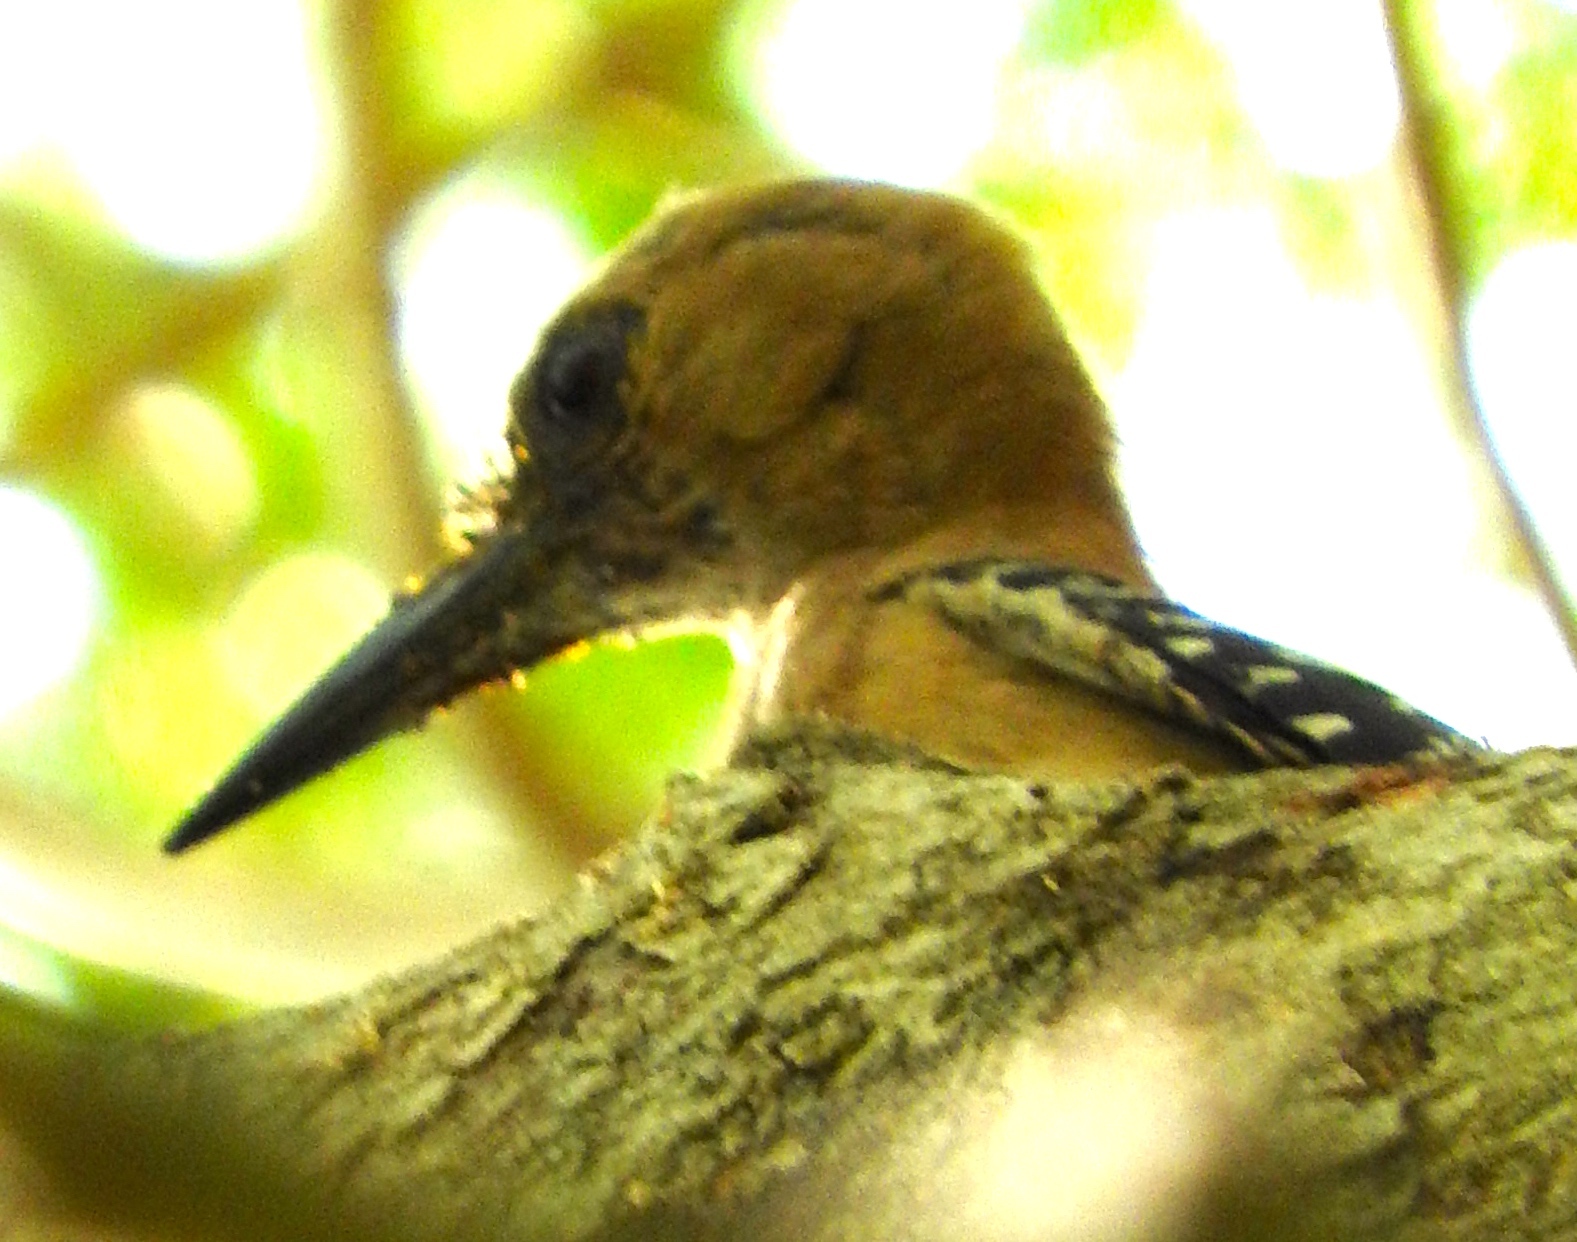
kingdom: Animalia
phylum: Chordata
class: Aves
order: Piciformes
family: Picidae
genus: Melanerpes
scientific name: Melanerpes uropygialis
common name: Gila woodpecker
